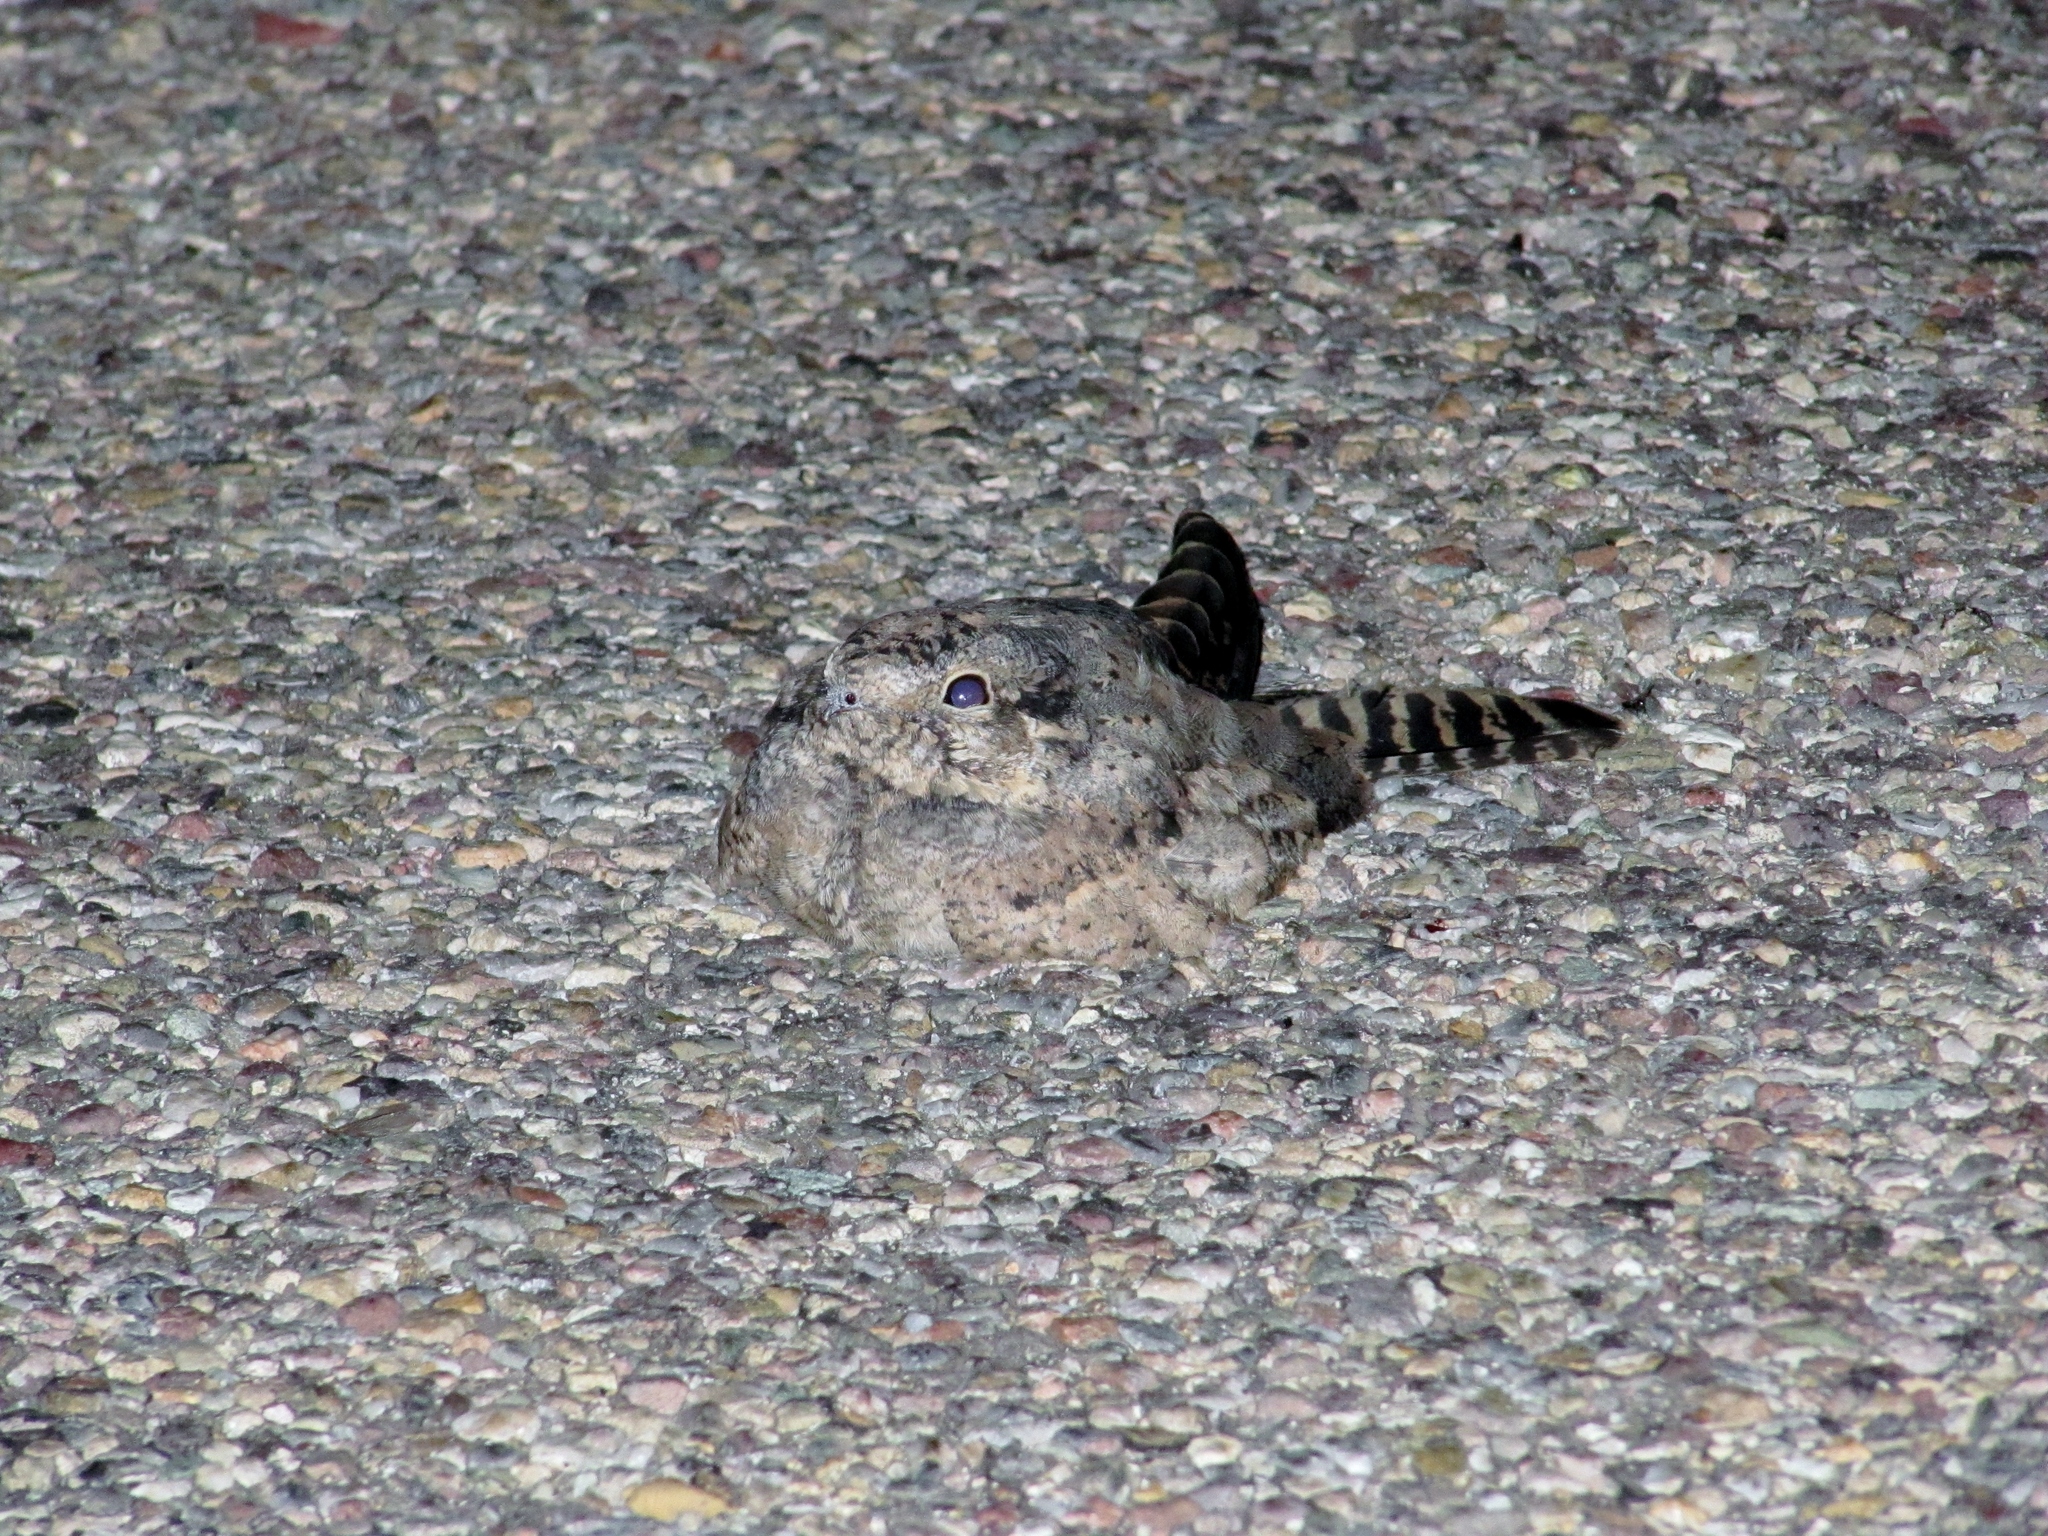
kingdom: Animalia
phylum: Chordata
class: Aves
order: Caprimulgiformes
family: Caprimulgidae
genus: Chordeiles
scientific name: Chordeiles acutipennis
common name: Lesser nighthawk
